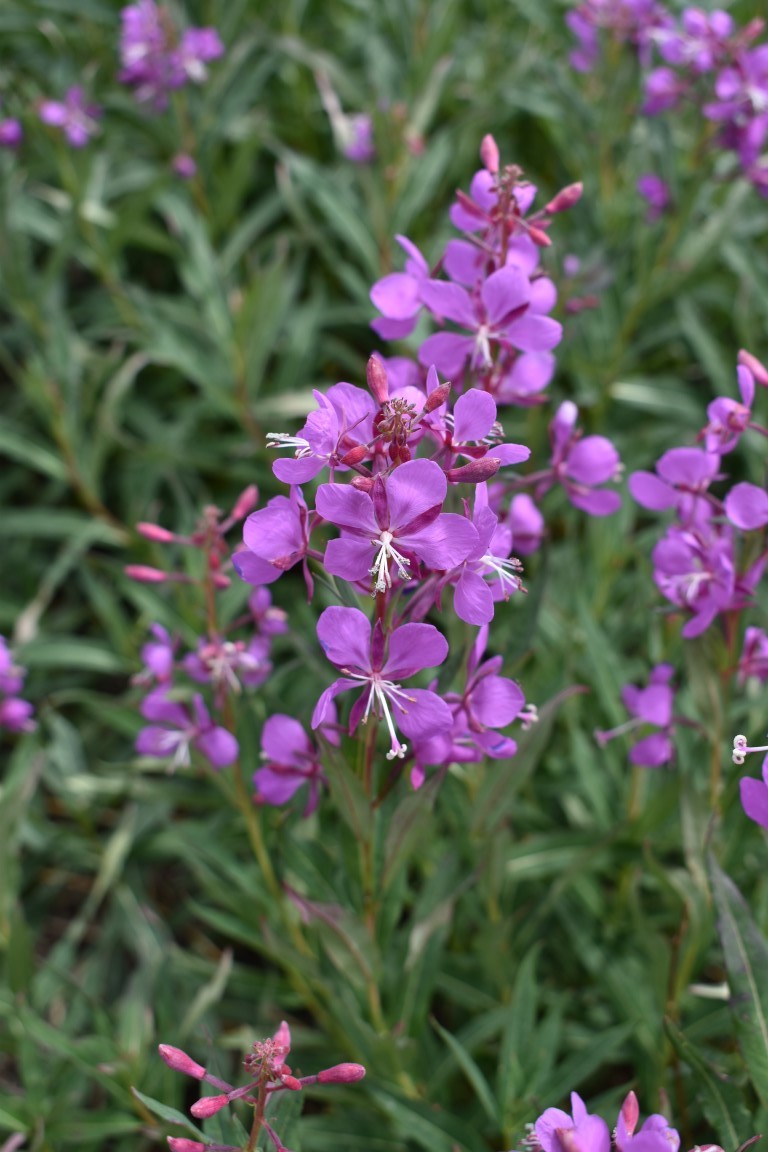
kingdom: Plantae
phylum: Tracheophyta
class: Magnoliopsida
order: Myrtales
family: Onagraceae
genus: Chamaenerion
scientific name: Chamaenerion angustifolium
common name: Fireweed
